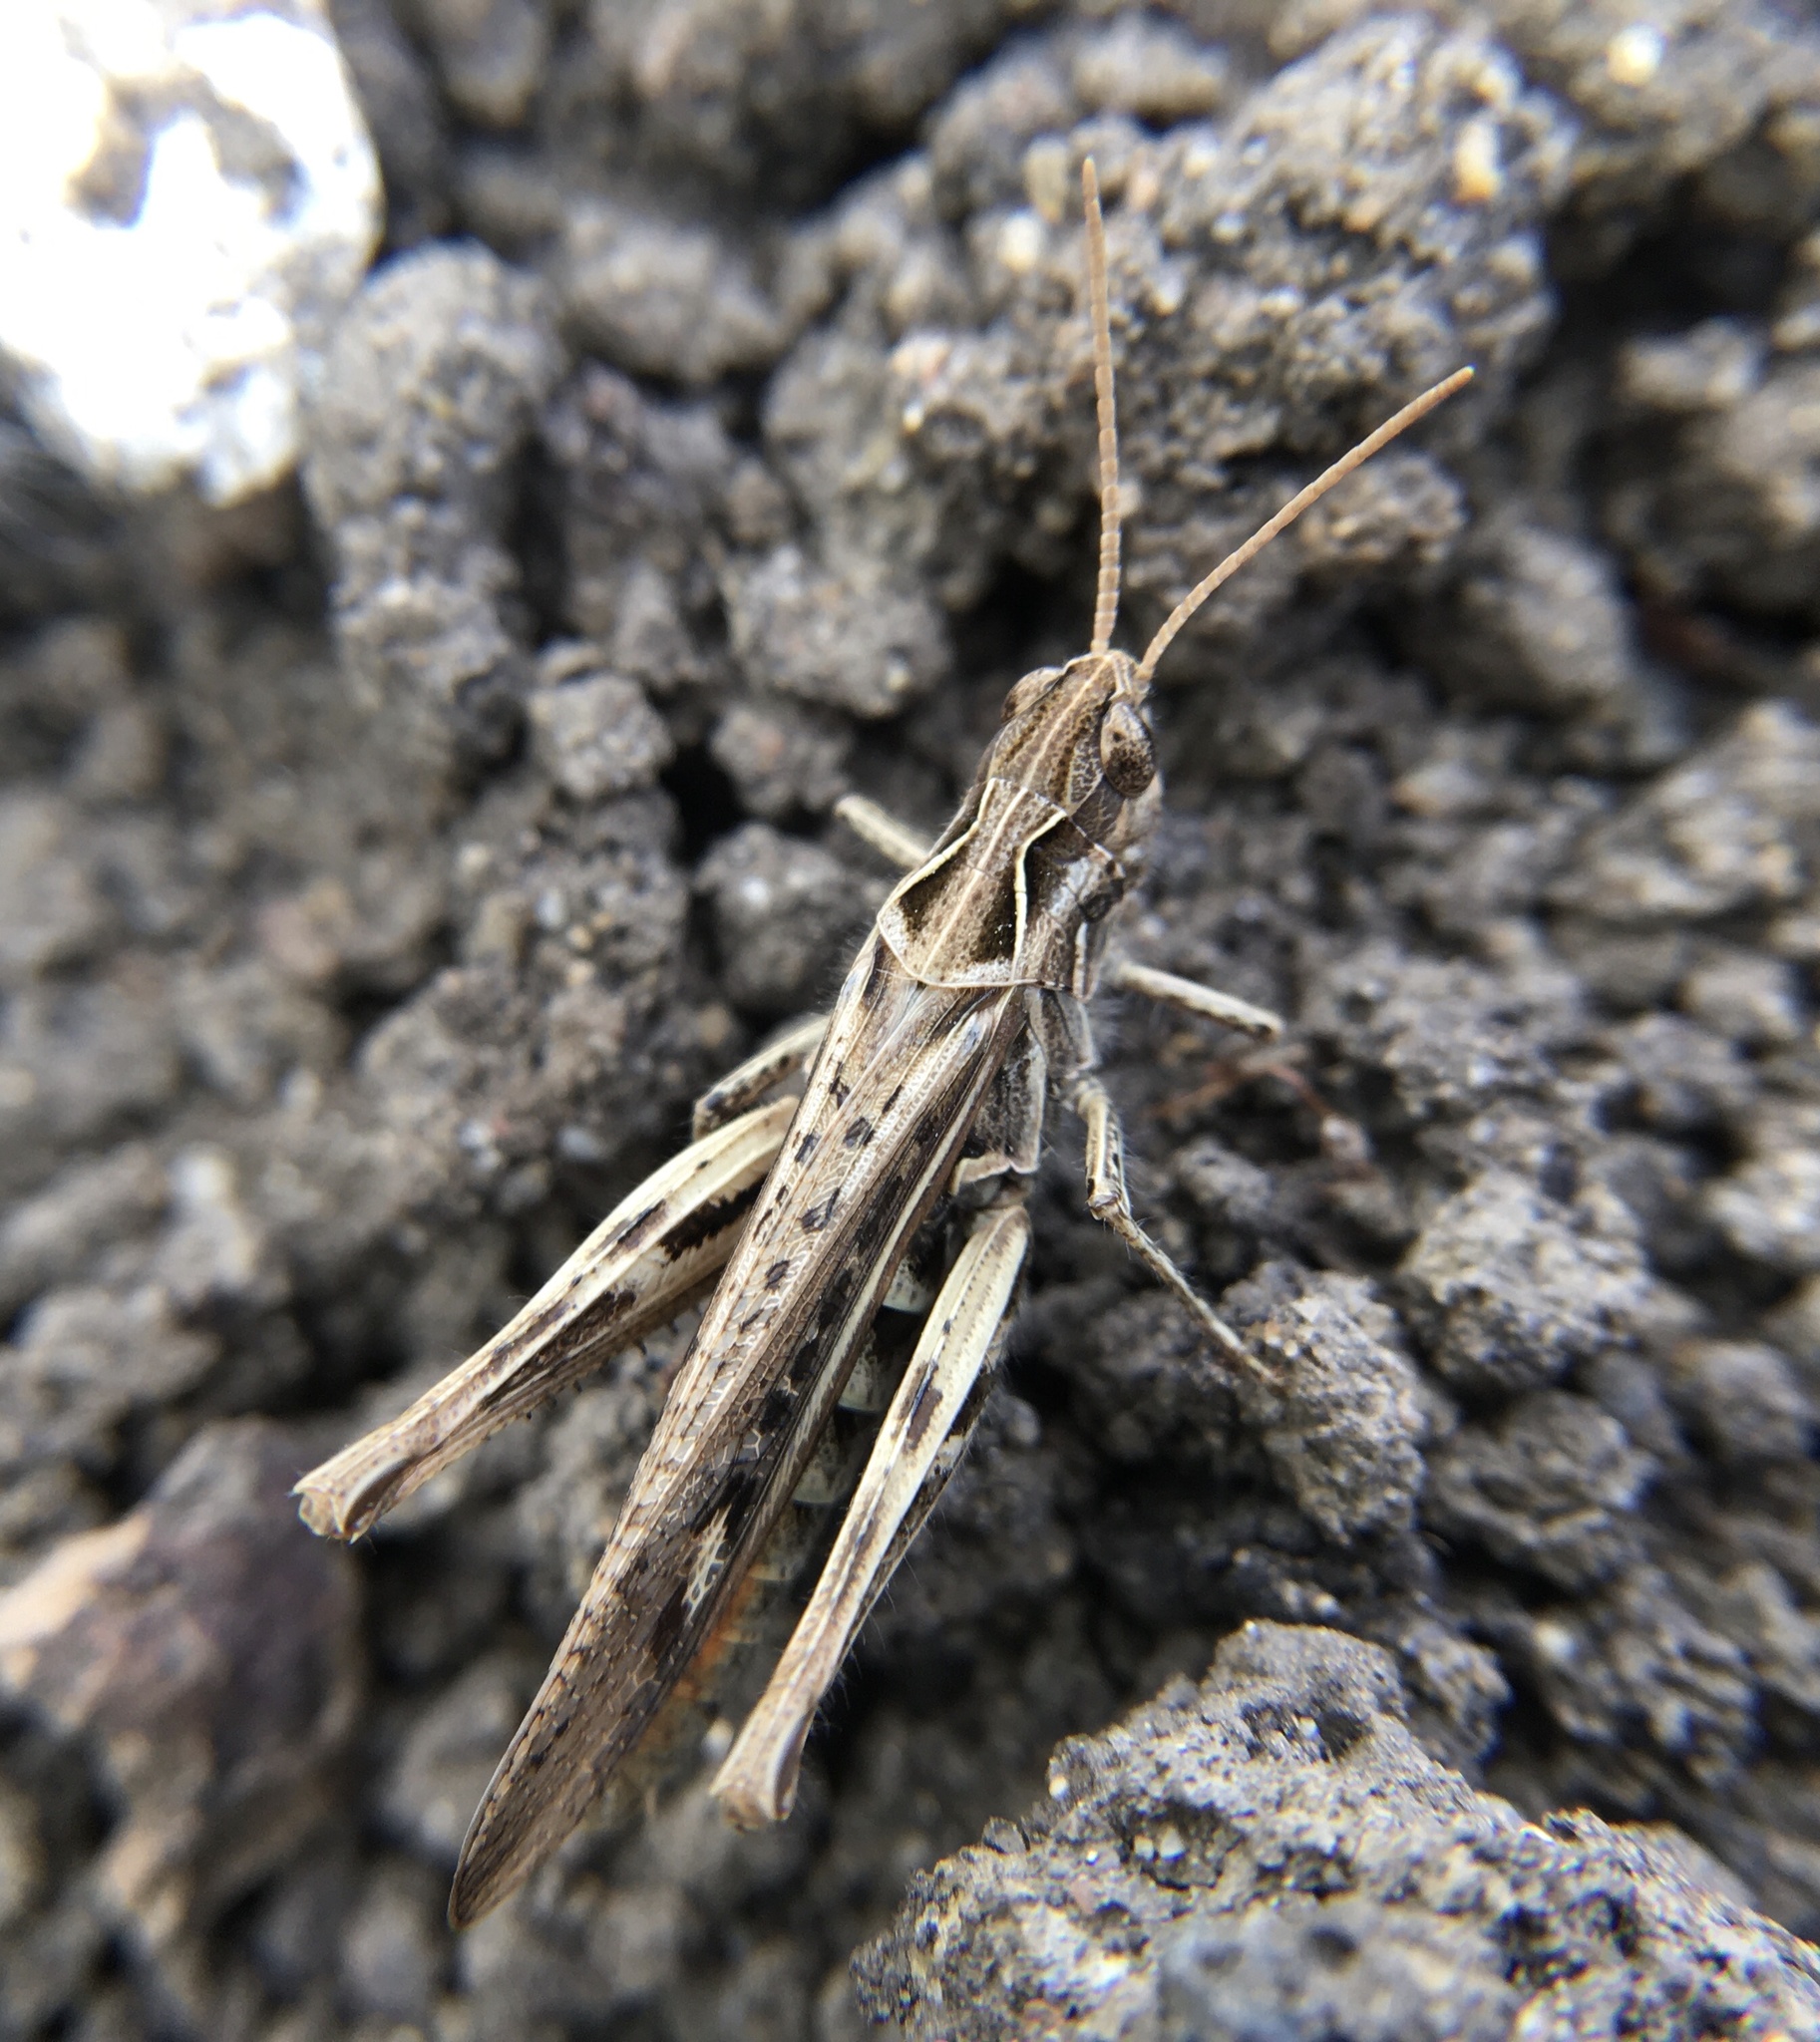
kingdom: Animalia
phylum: Arthropoda
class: Insecta
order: Orthoptera
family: Acrididae
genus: Chorthippus
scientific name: Chorthippus brunneus
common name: Field grasshopper
